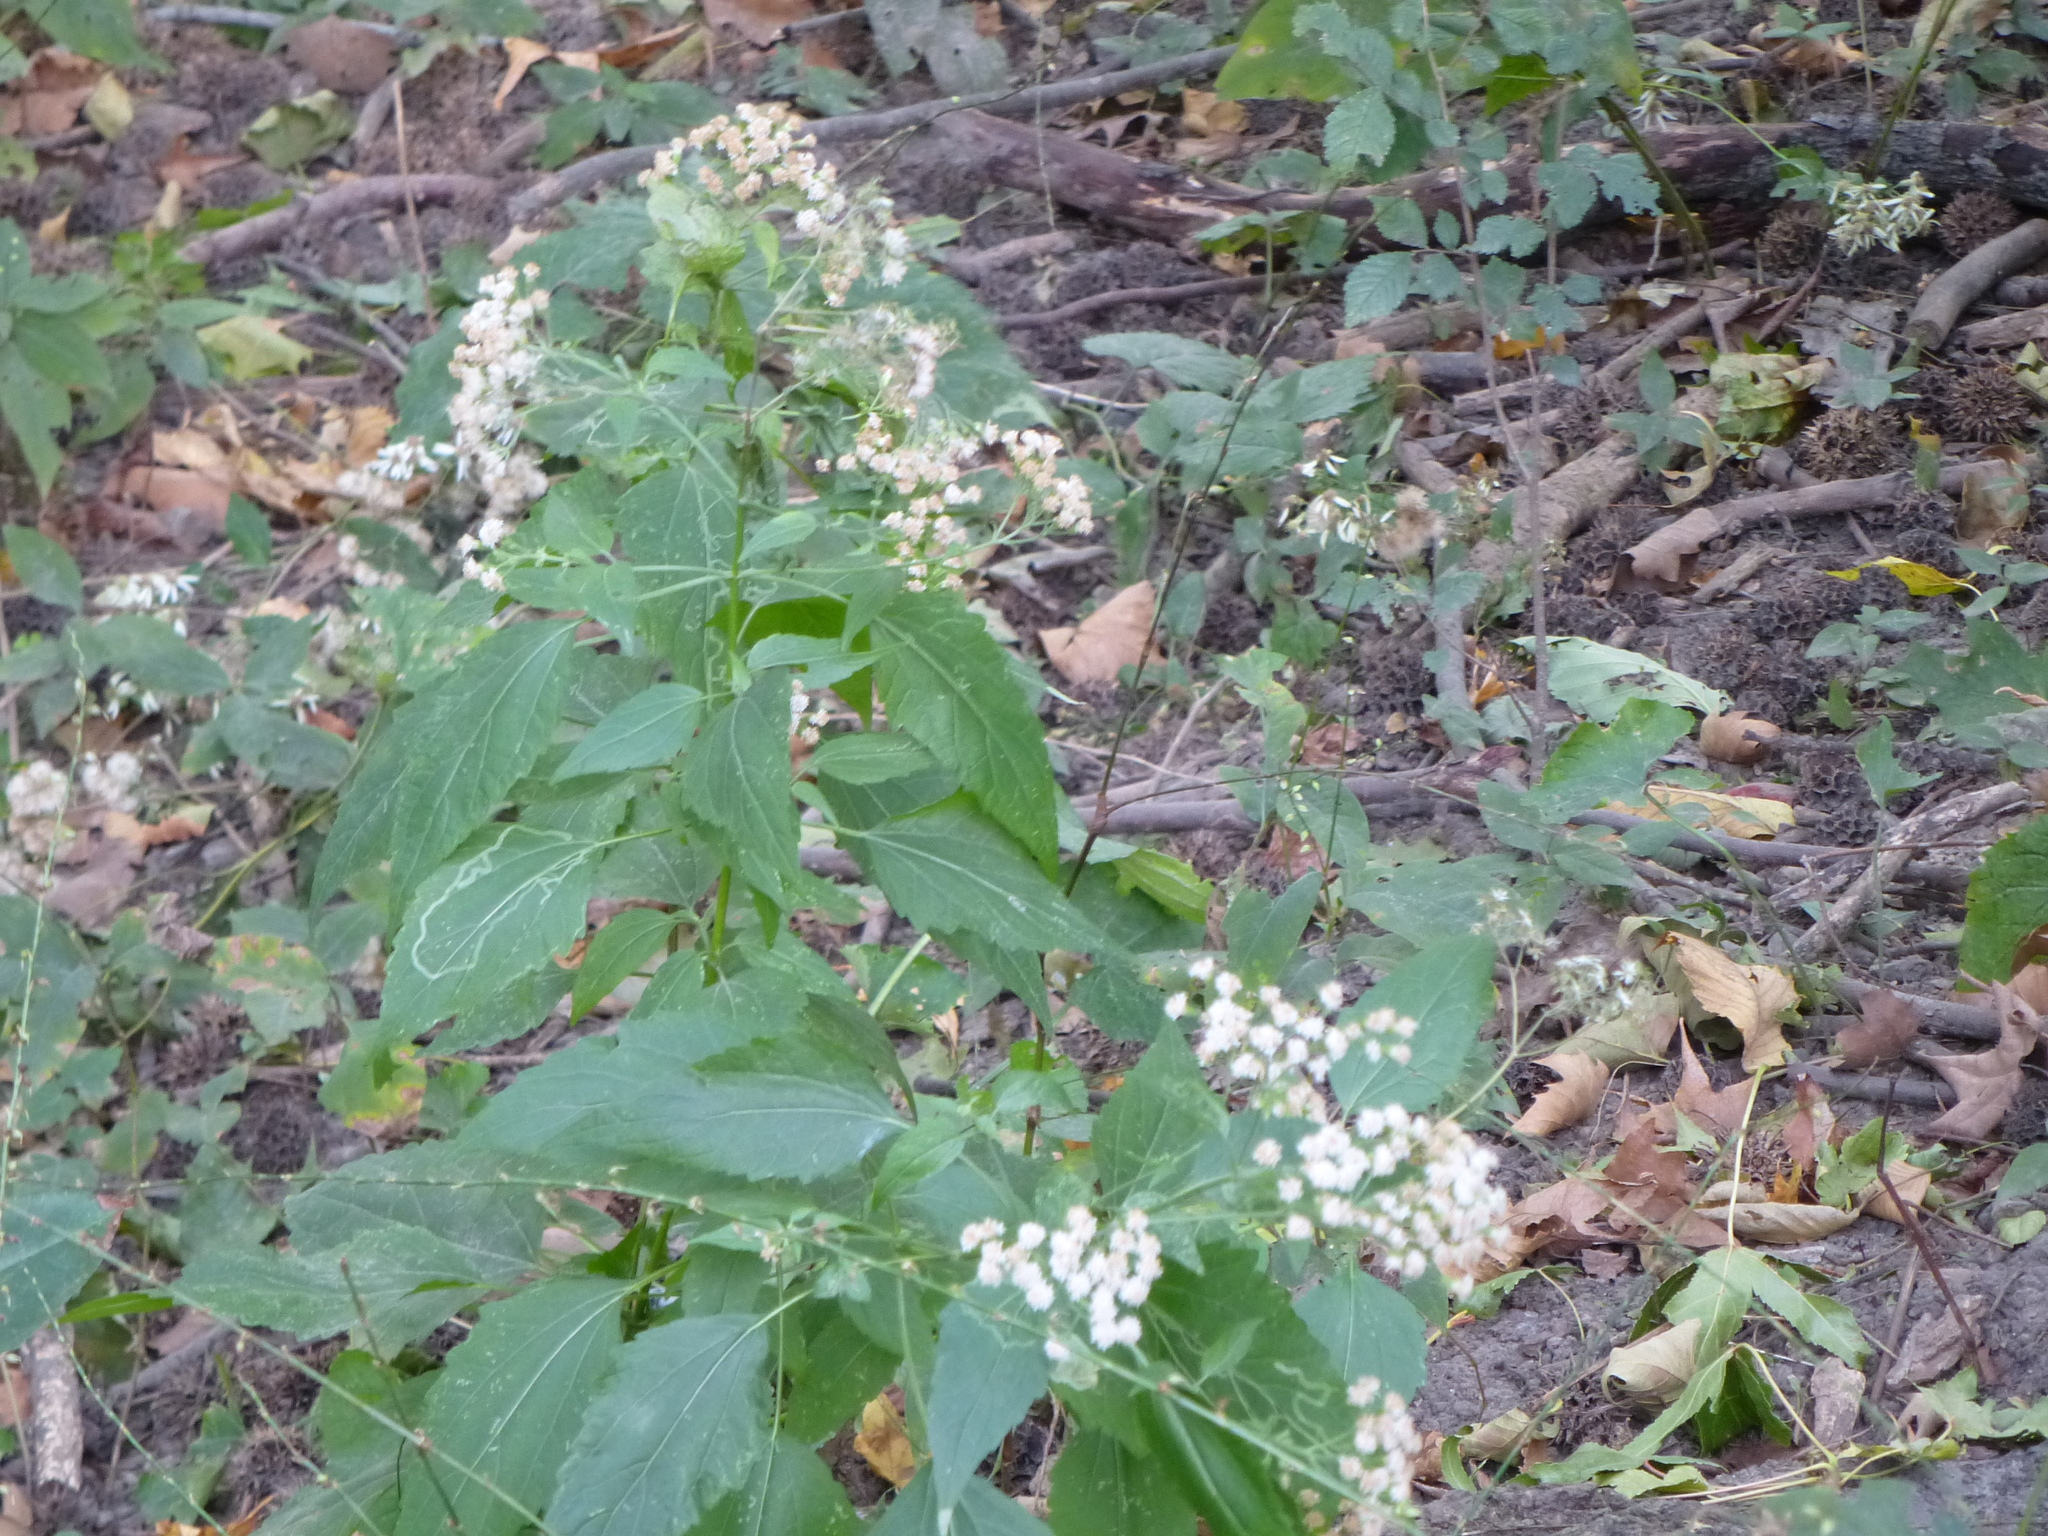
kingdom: Plantae
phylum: Tracheophyta
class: Magnoliopsida
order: Asterales
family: Asteraceae
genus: Ageratina
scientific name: Ageratina altissima
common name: White snakeroot
